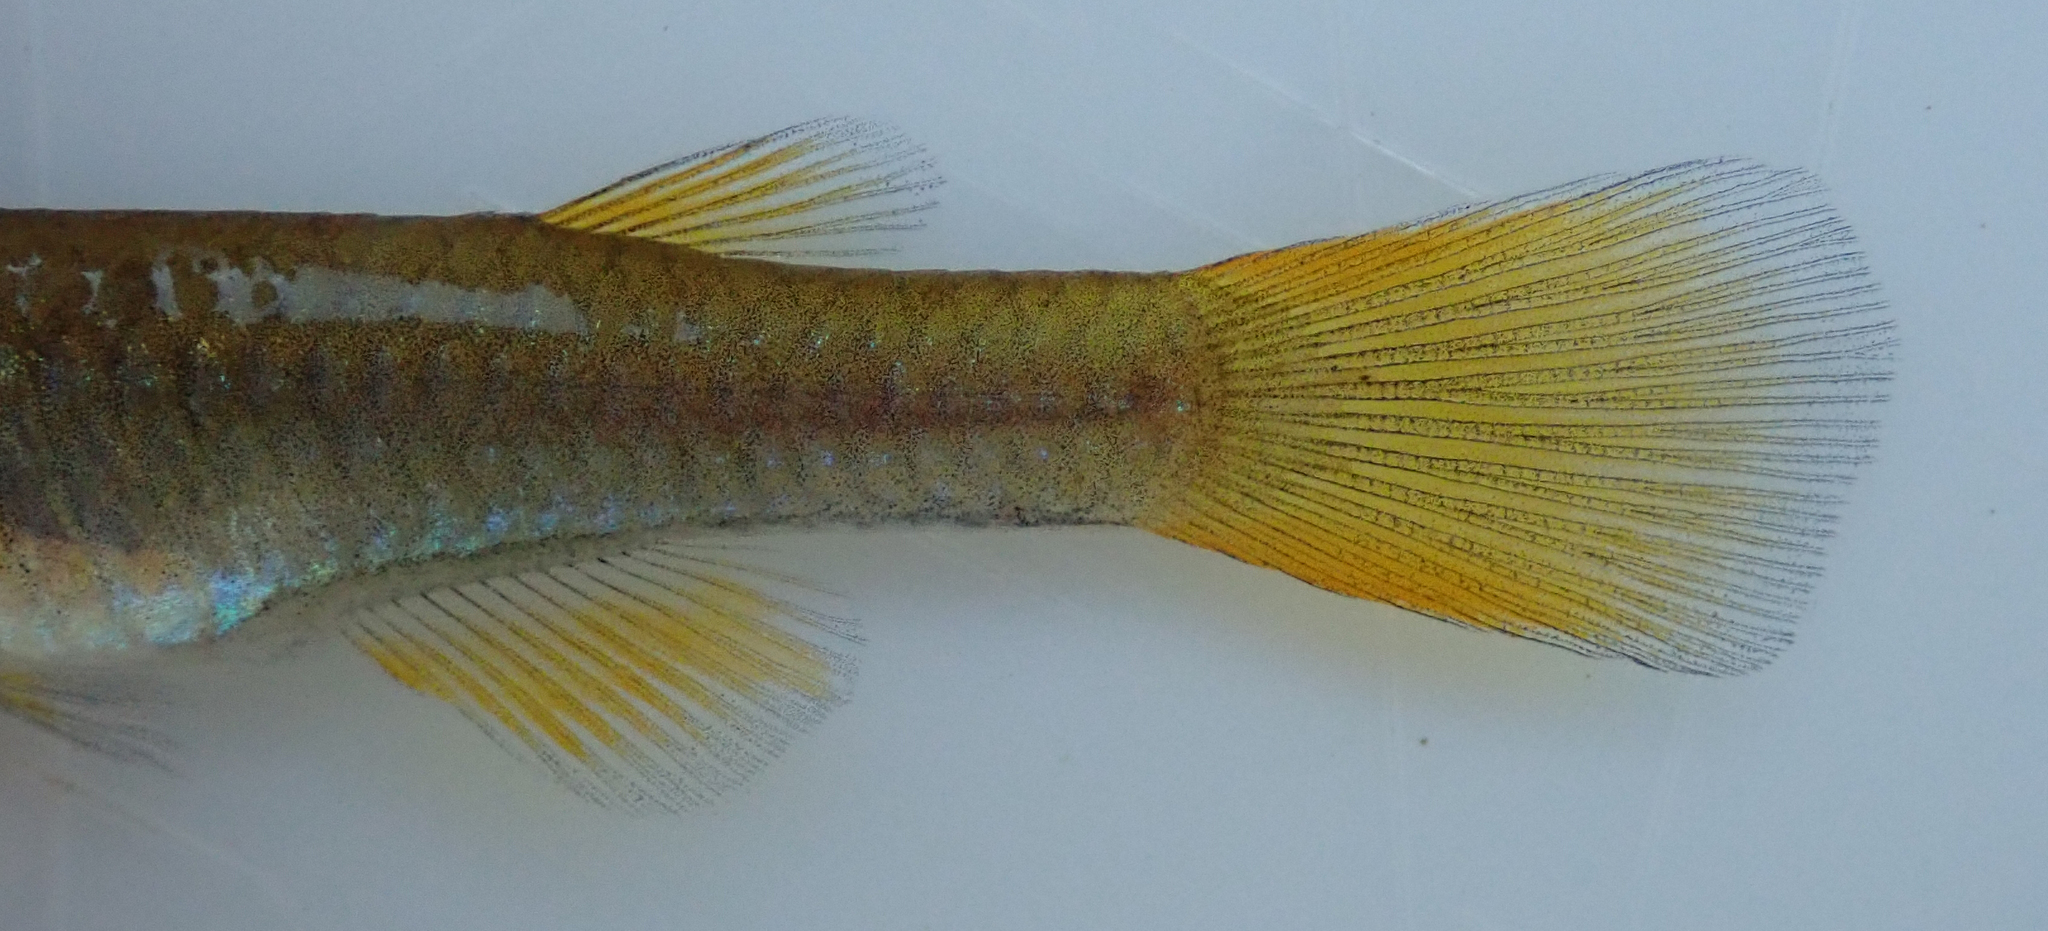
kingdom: Animalia
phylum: Chordata
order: Cyprinodontiformes
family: Poeciliidae
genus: Micropanchax
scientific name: Micropanchax johnstoni
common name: Johnston's topminnow
